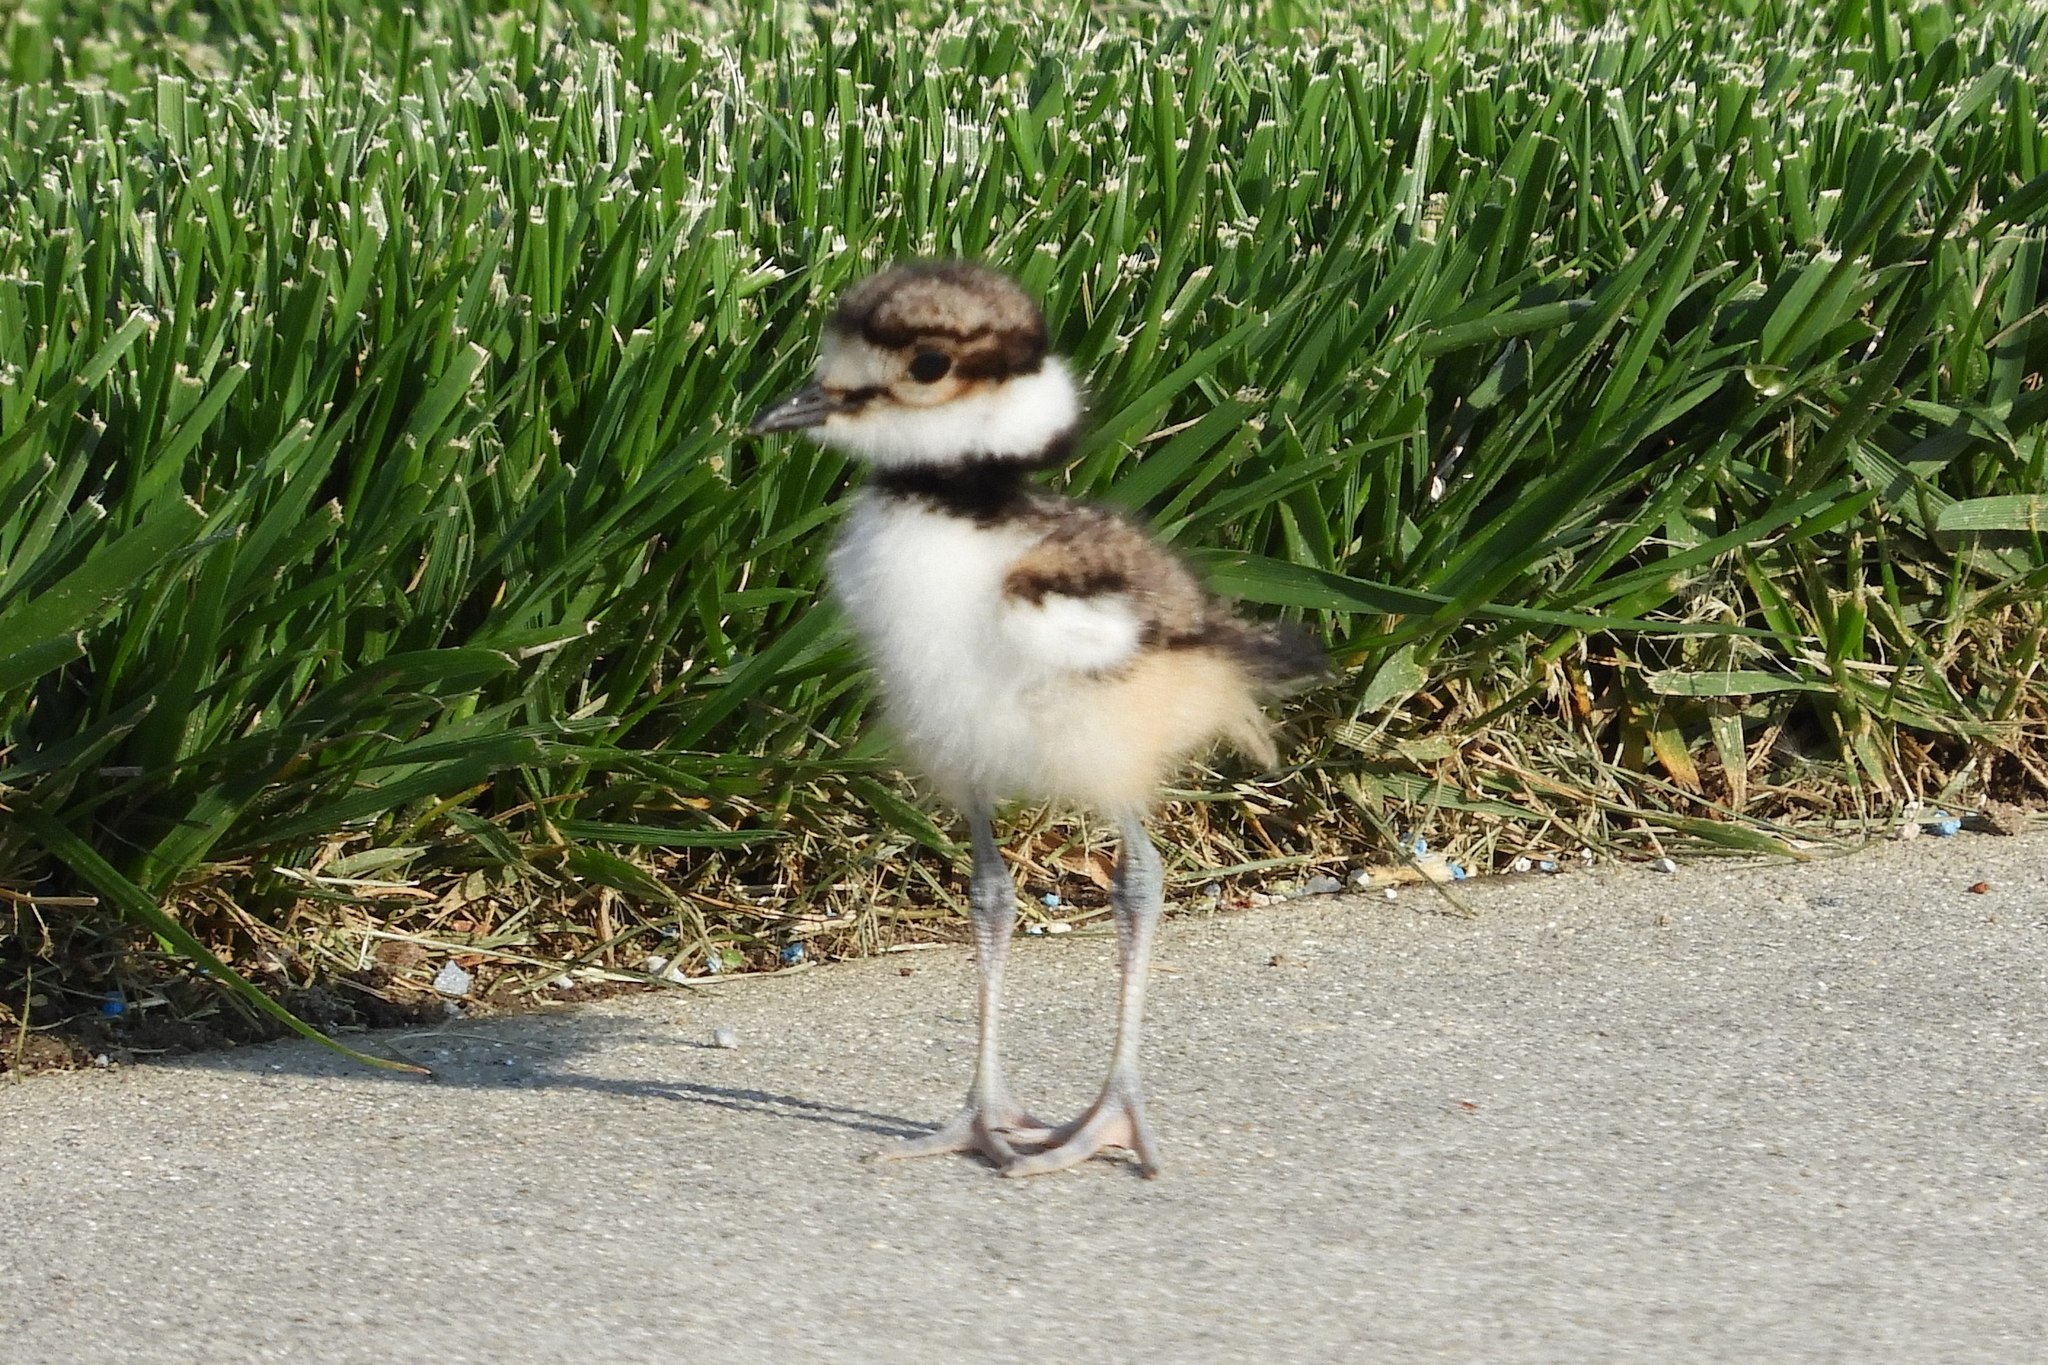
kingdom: Animalia
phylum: Chordata
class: Aves
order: Charadriiformes
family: Charadriidae
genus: Charadrius
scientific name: Charadrius vociferus
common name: Killdeer
